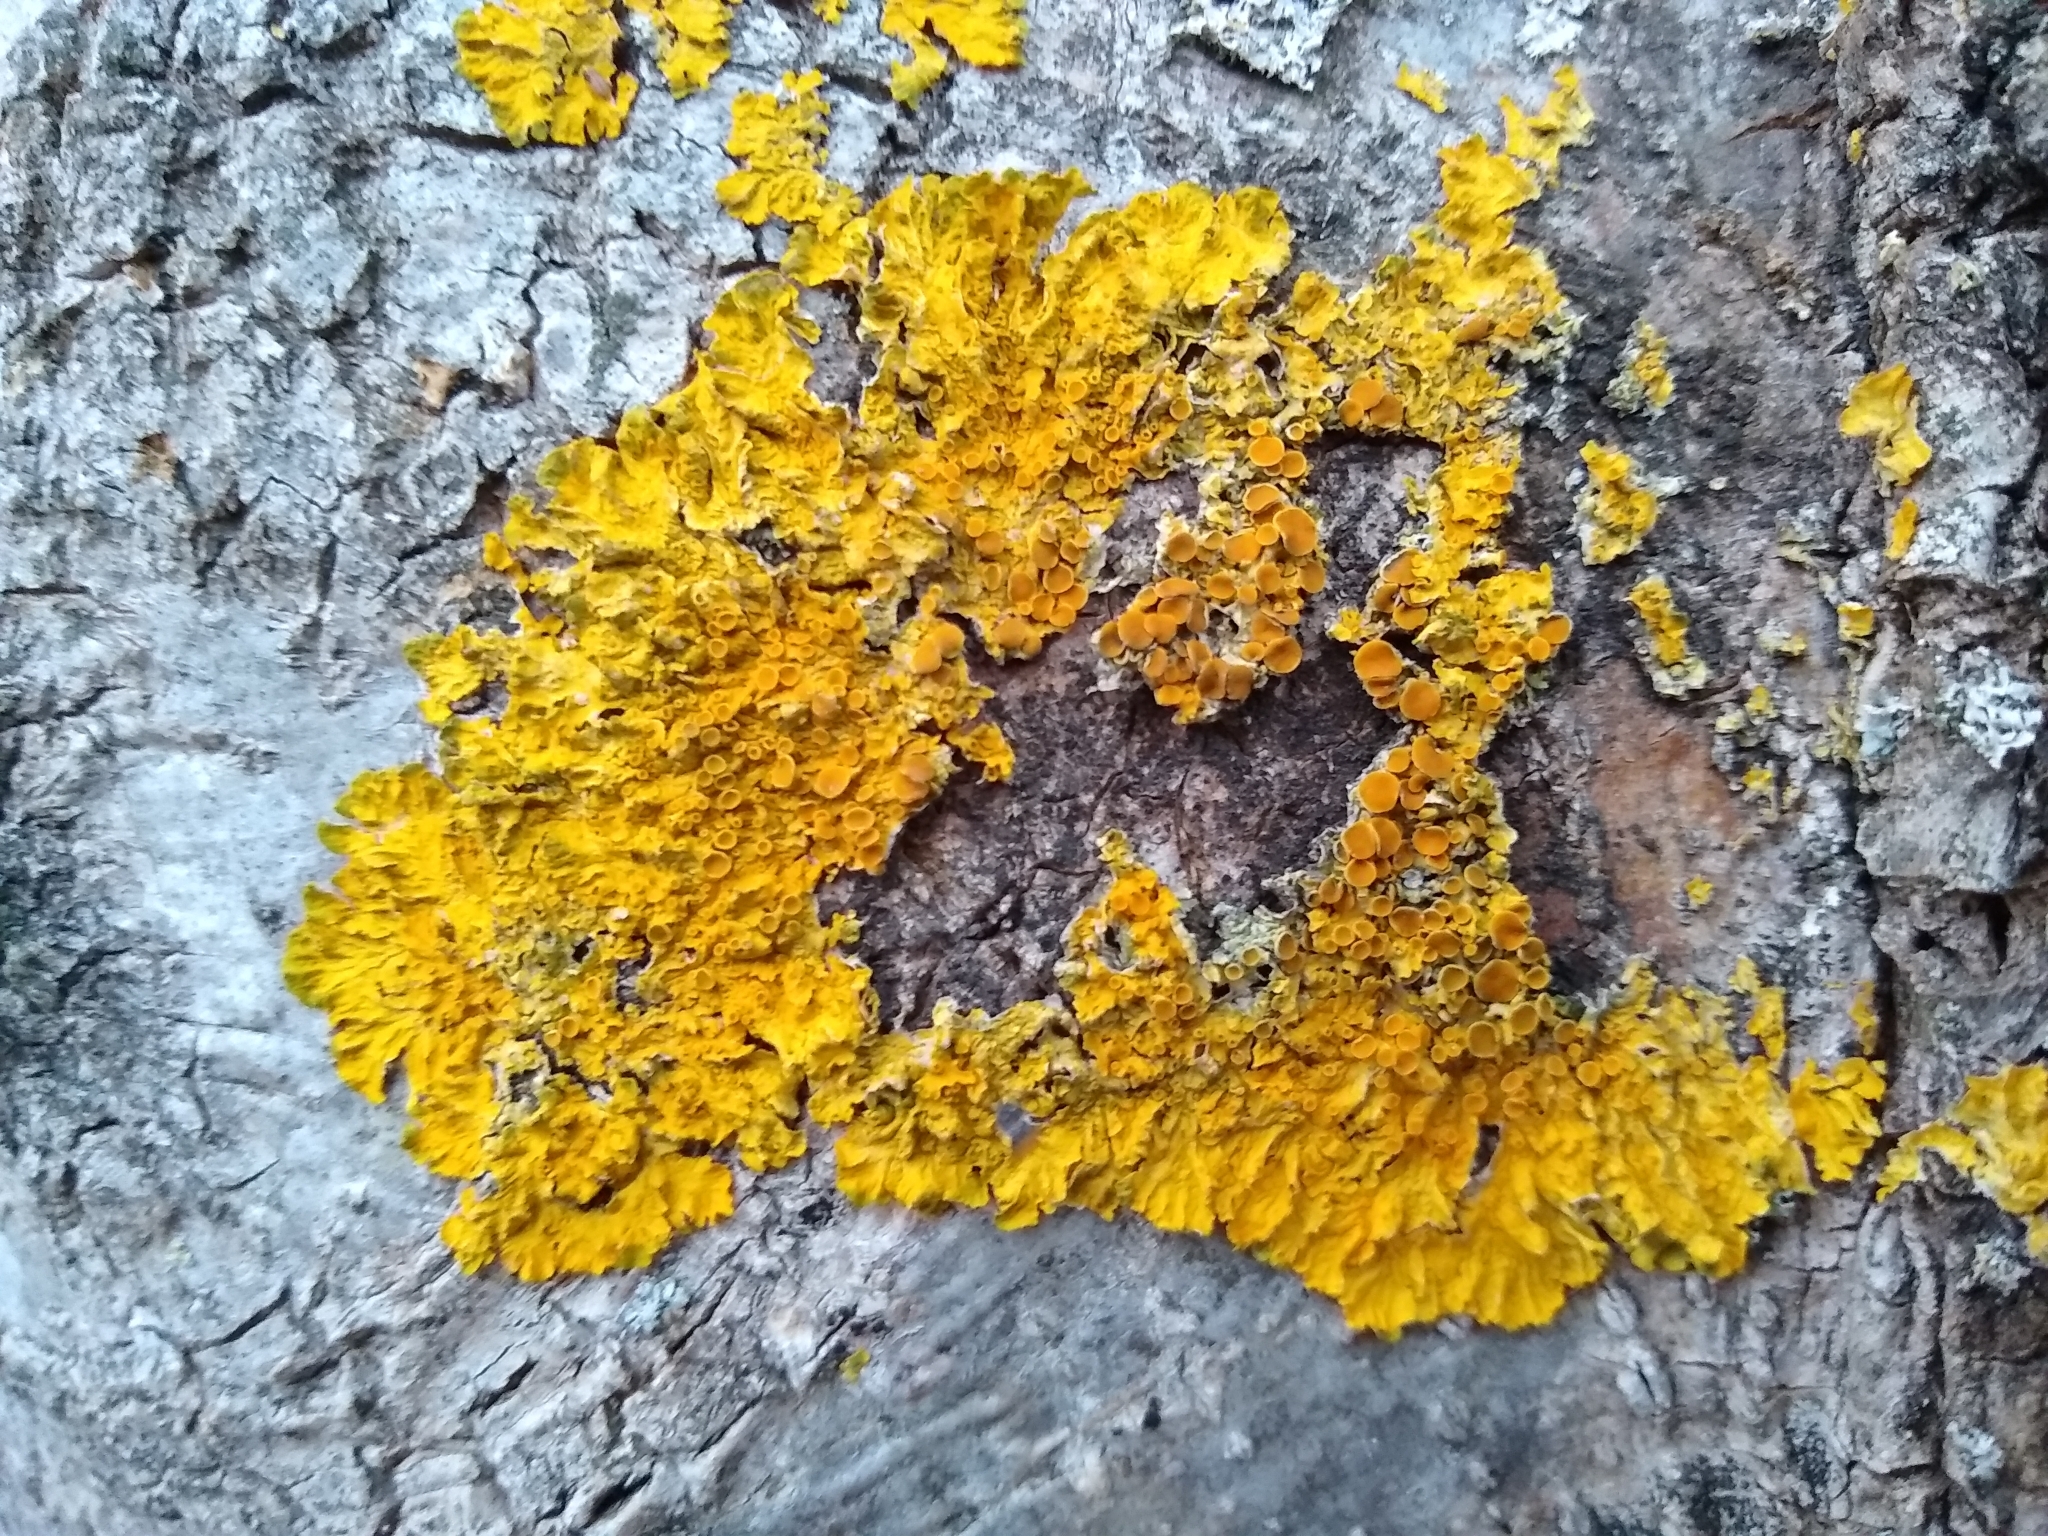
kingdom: Fungi
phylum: Ascomycota
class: Lecanoromycetes
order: Teloschistales
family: Teloschistaceae
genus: Xanthoria
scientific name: Xanthoria parietina
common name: Common orange lichen
